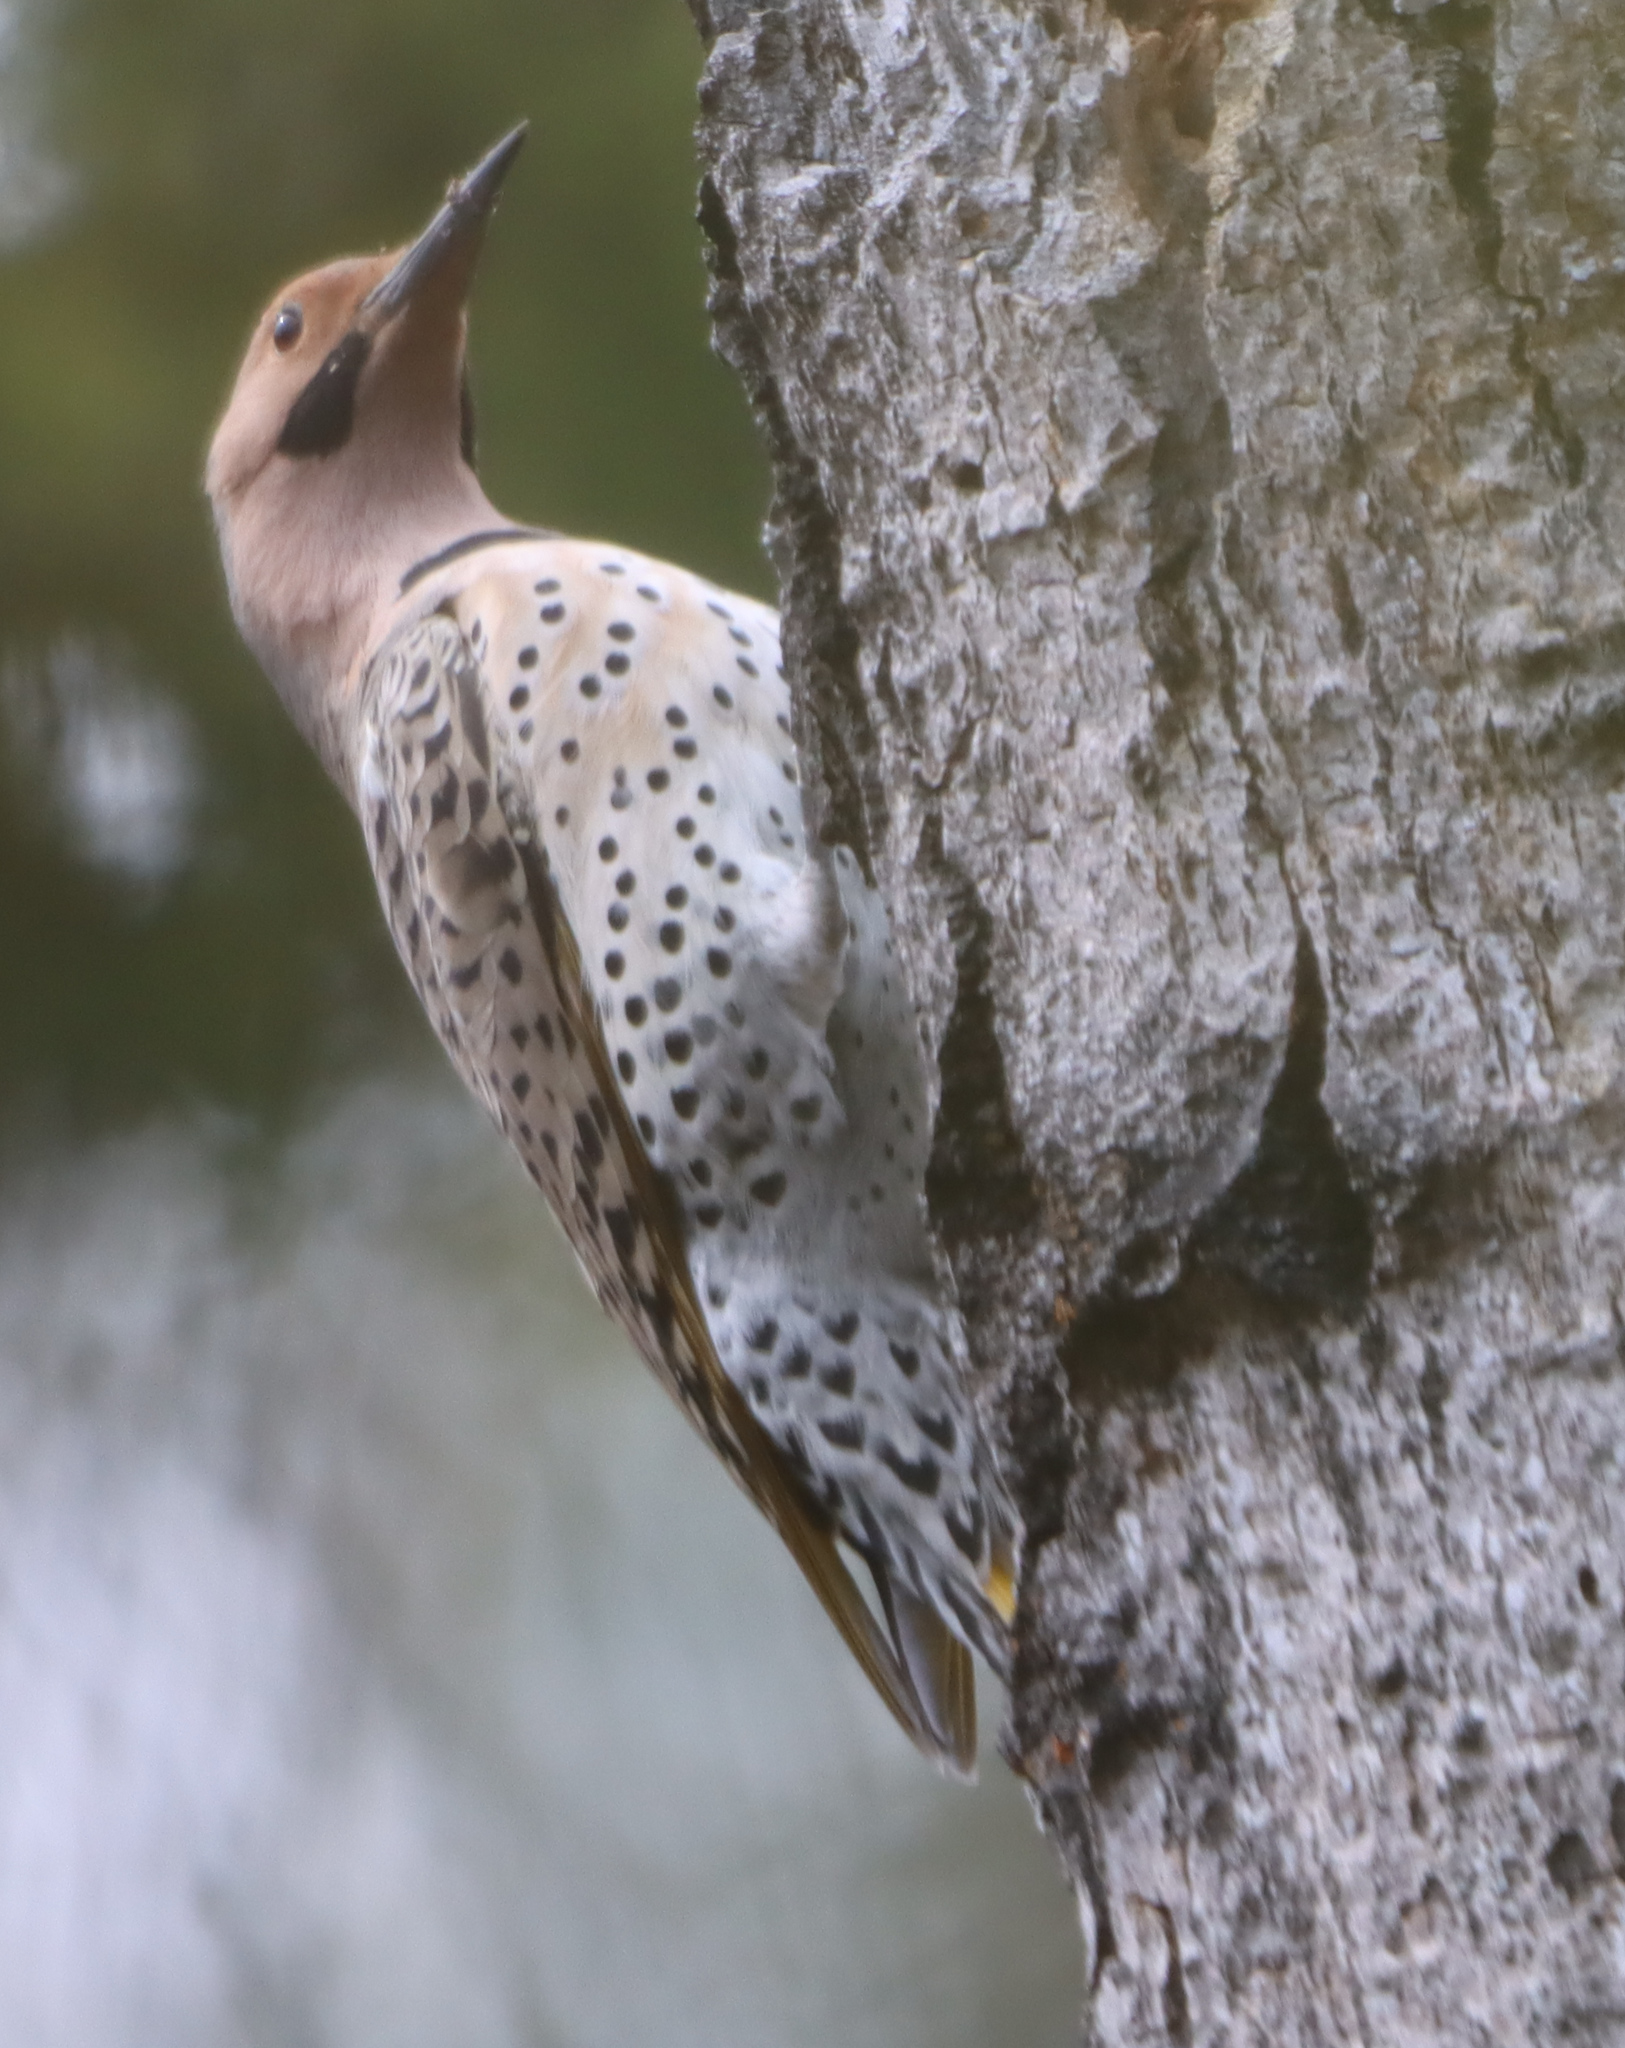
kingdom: Animalia
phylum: Chordata
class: Aves
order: Piciformes
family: Picidae
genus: Colaptes
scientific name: Colaptes auratus
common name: Northern flicker
